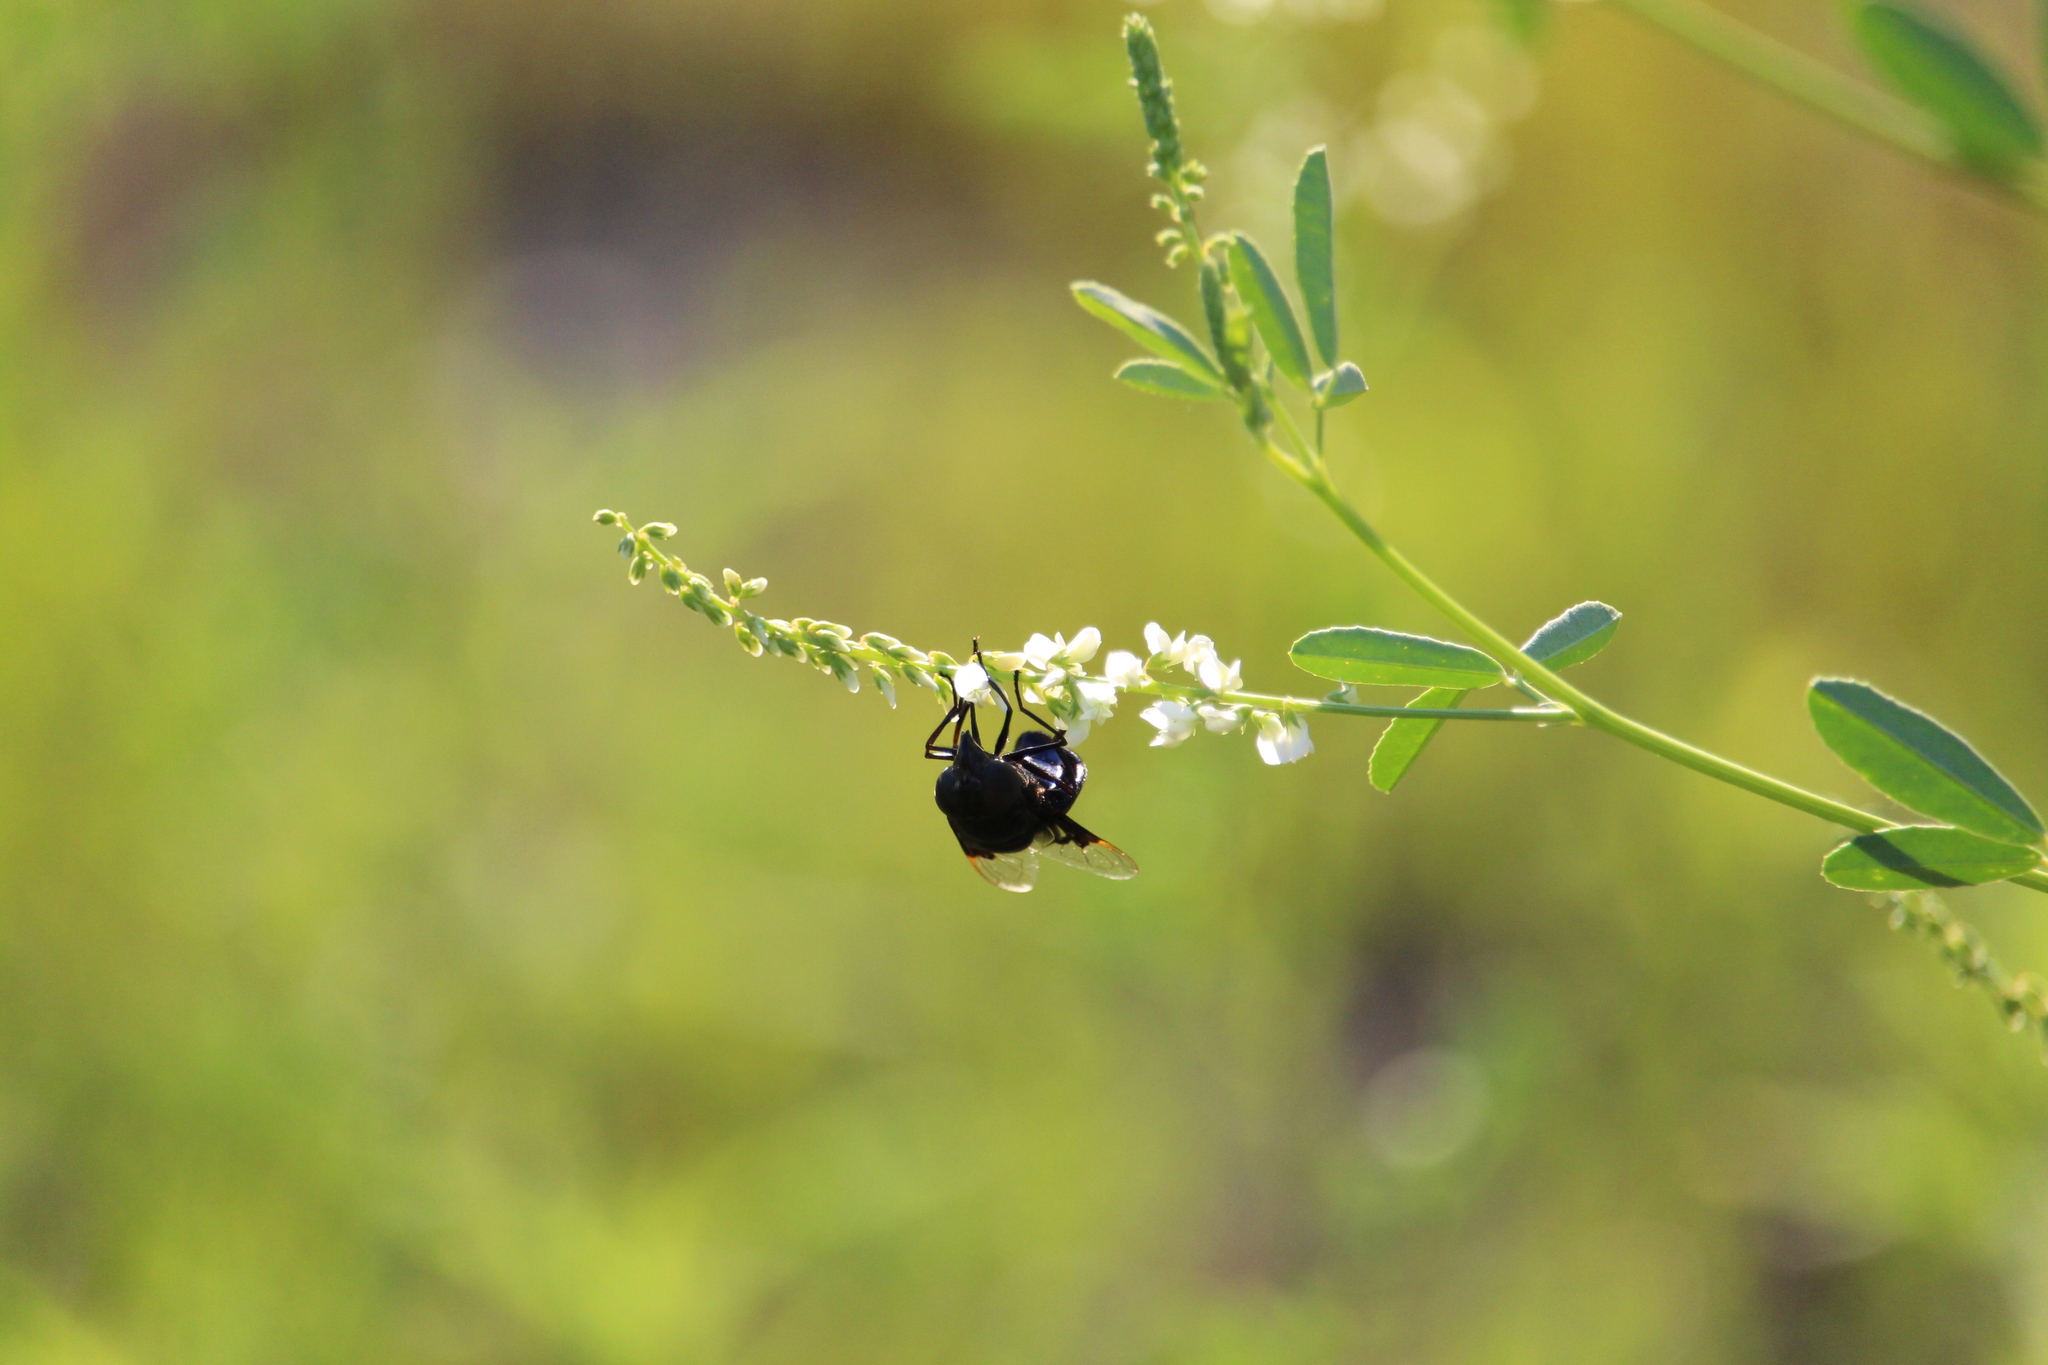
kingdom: Animalia
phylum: Arthropoda
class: Insecta
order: Diptera
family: Syrphidae
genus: Copestylum
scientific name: Copestylum mexicanum
